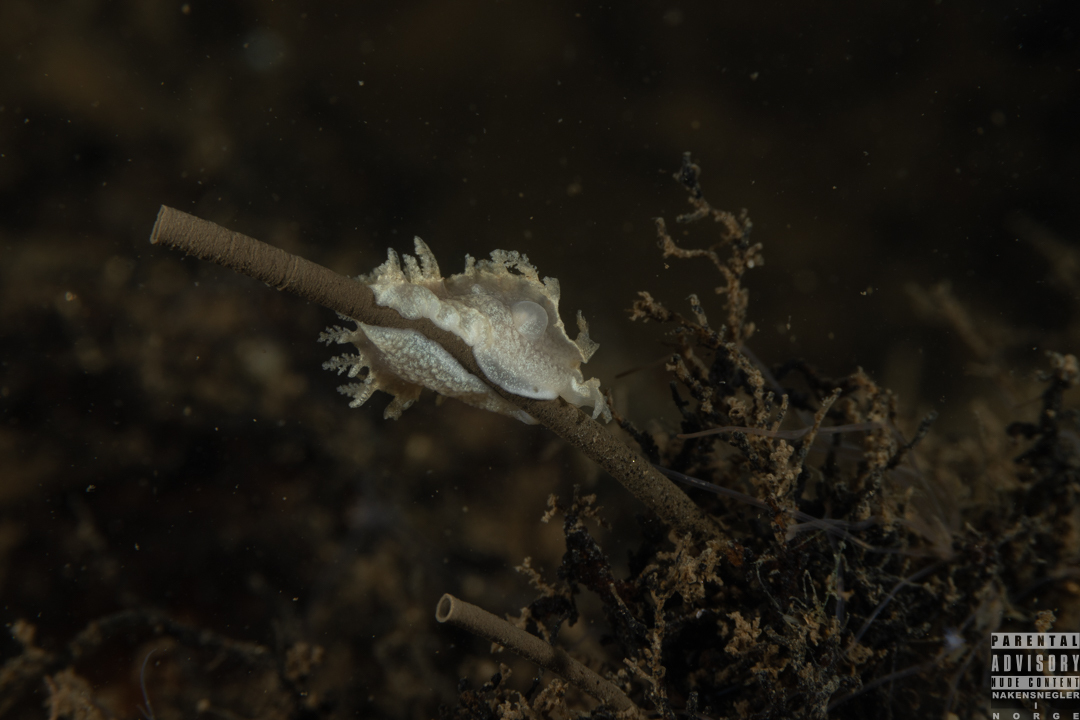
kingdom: Animalia
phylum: Mollusca
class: Gastropoda
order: Nudibranchia
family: Tritoniidae
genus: Duvaucelia
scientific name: Duvaucelia plebeia
